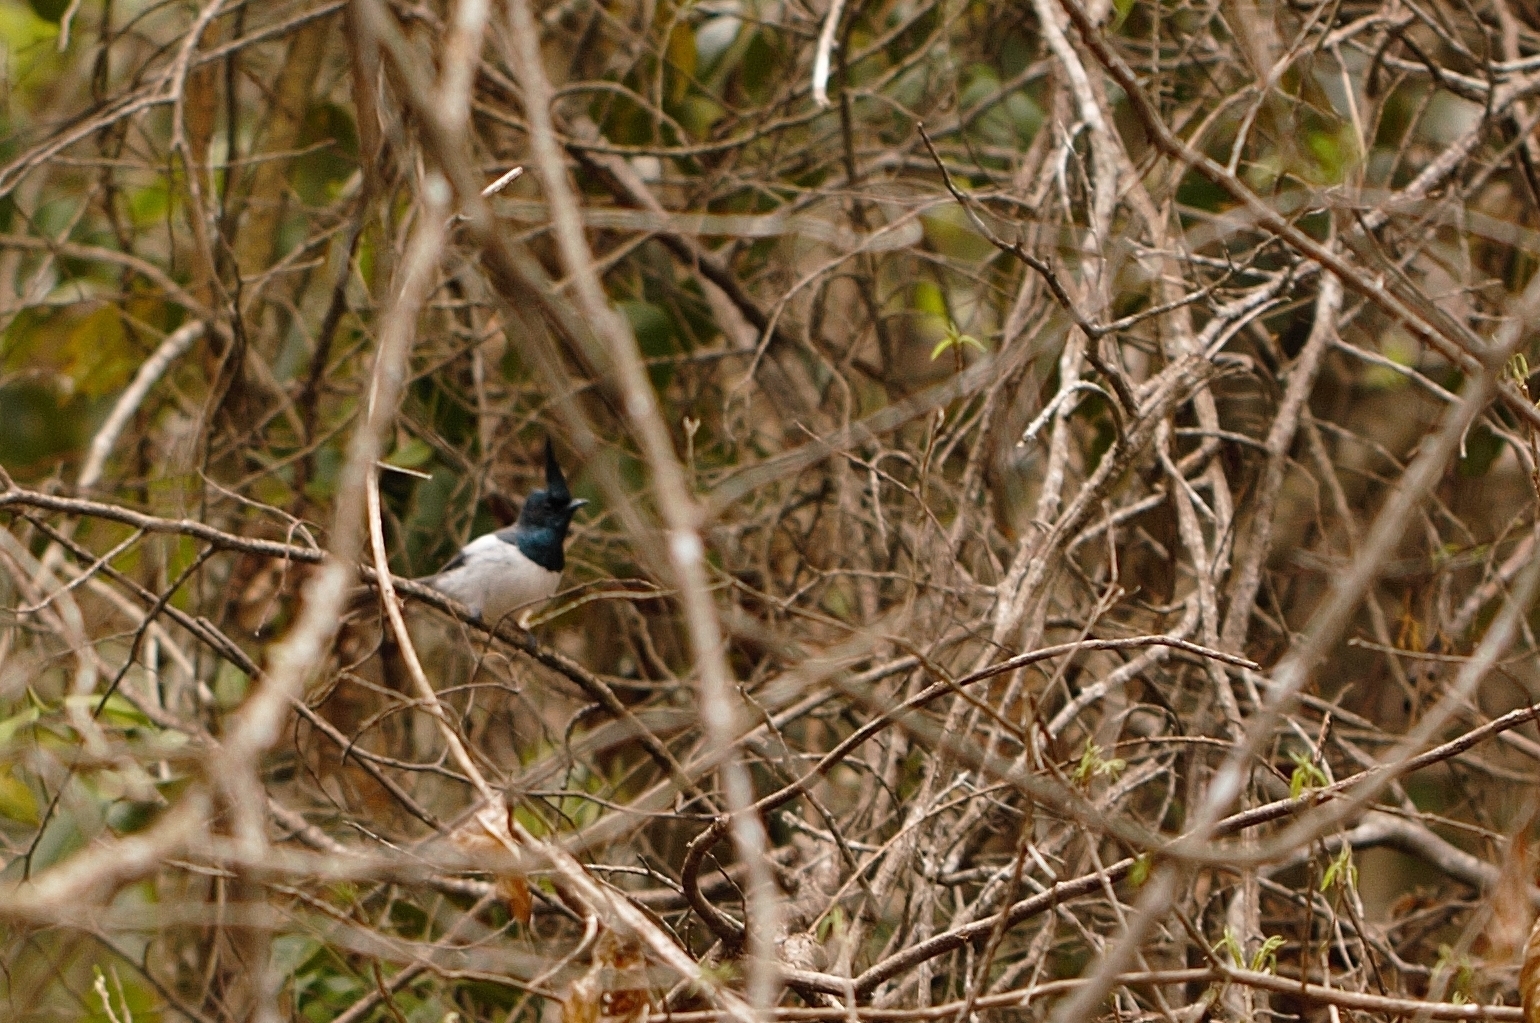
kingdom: Animalia
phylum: Chordata
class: Aves
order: Passeriformes
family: Monarchidae
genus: Trochocercus
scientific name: Trochocercus cyanomelas
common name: Blue-mantled crested flycatcher
